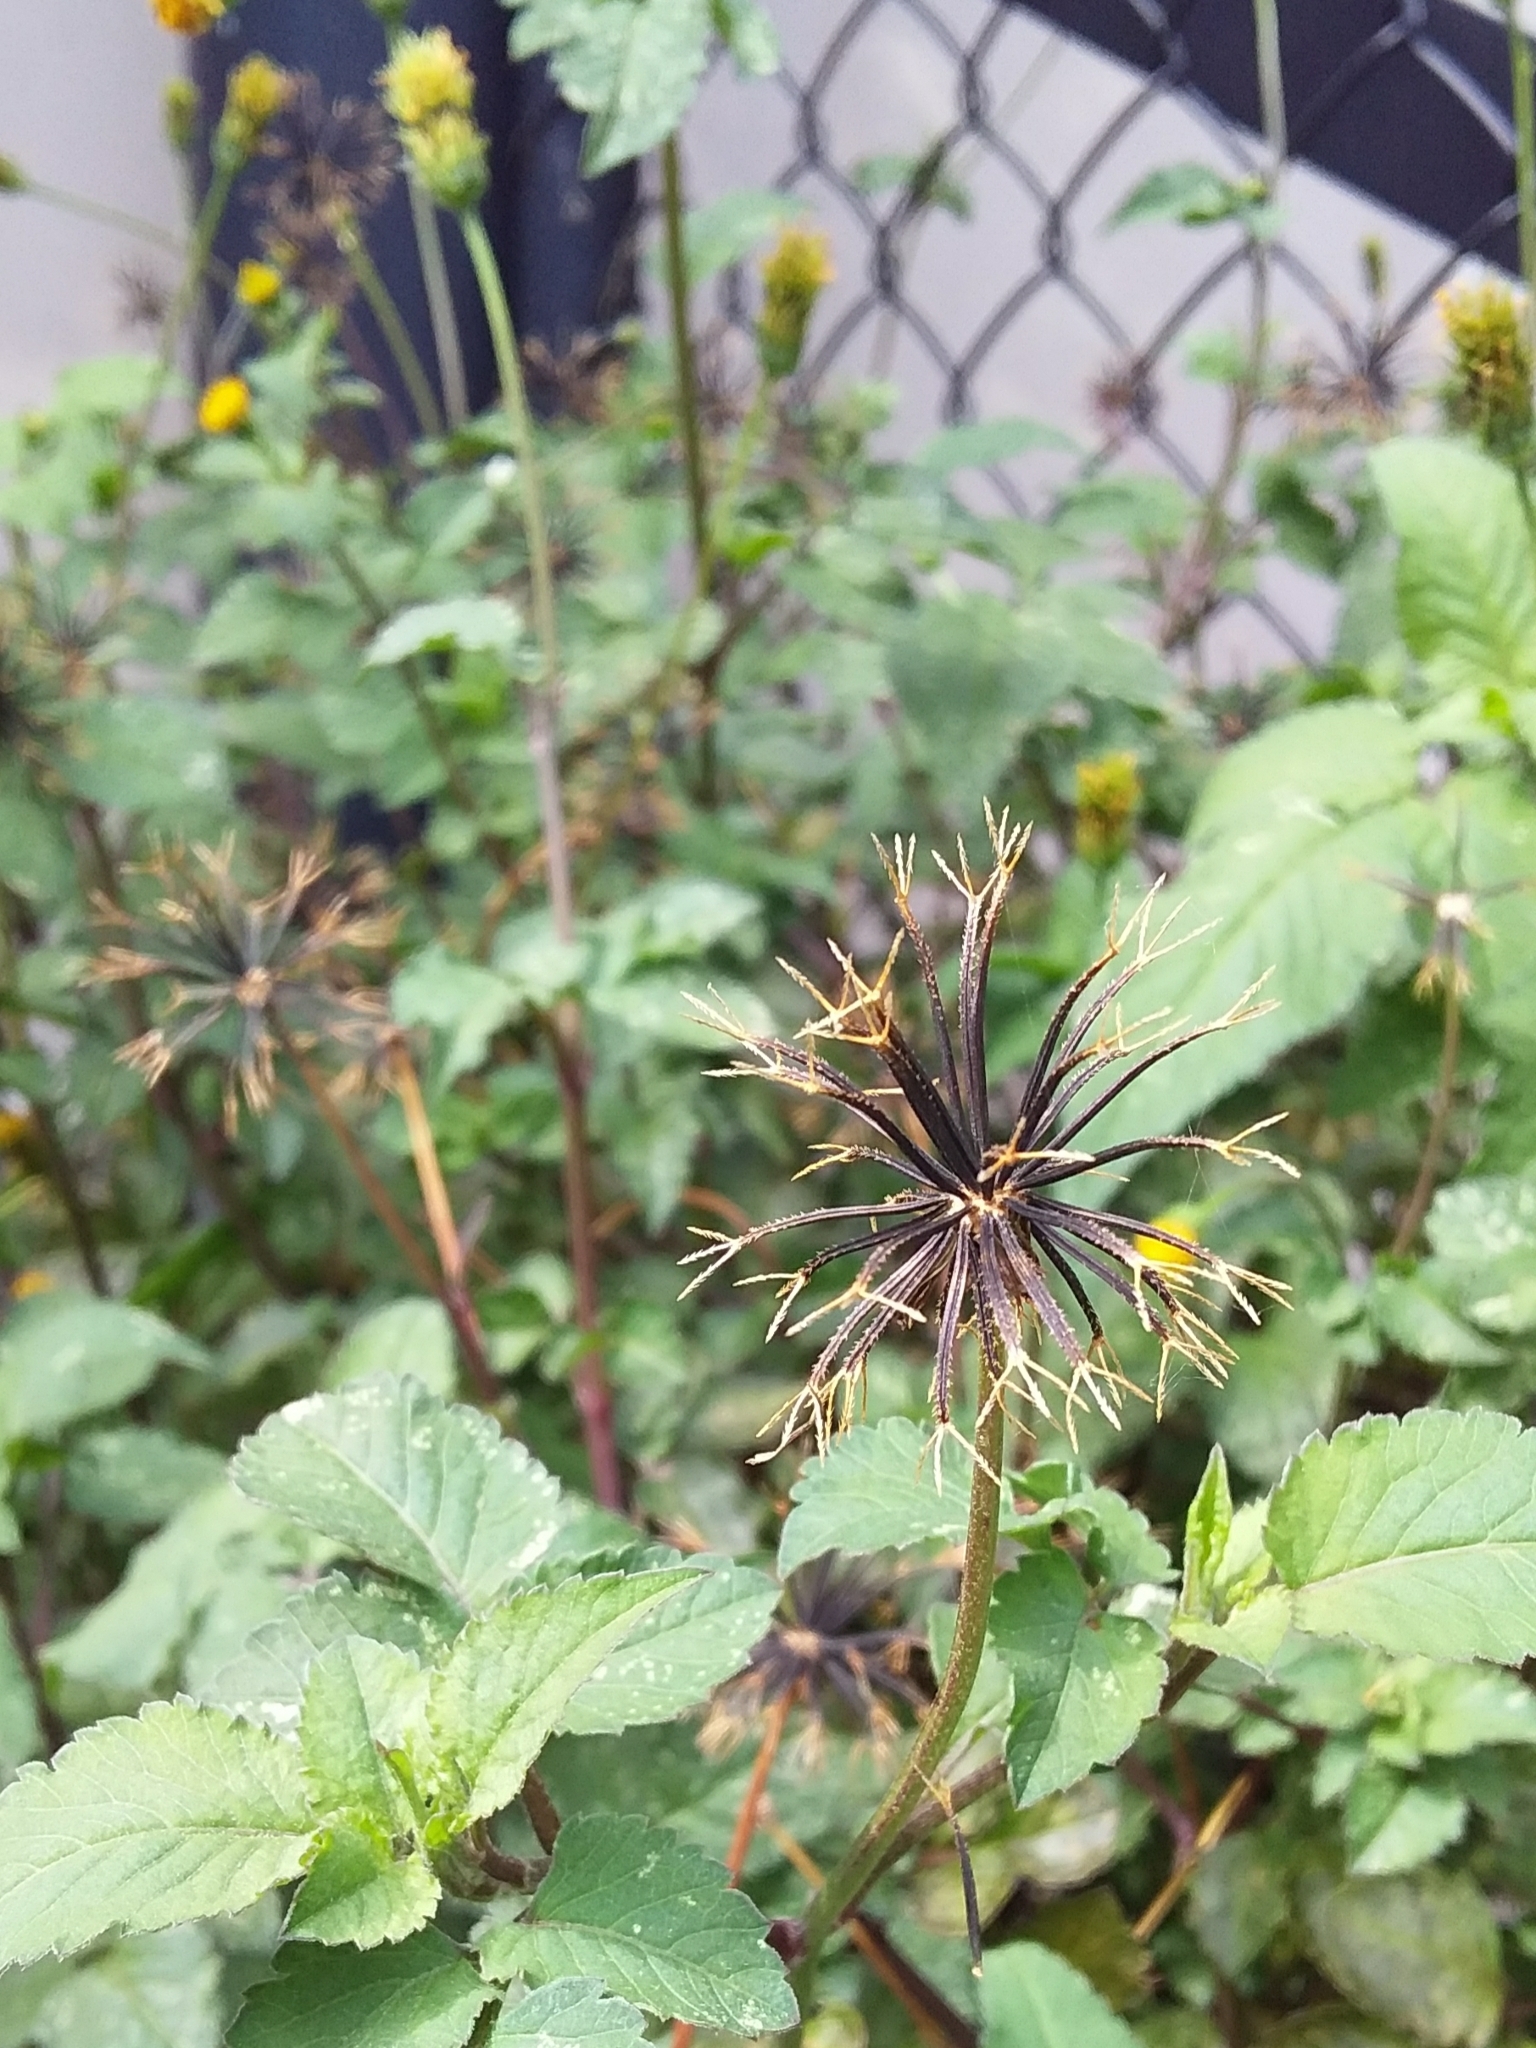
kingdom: Plantae
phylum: Tracheophyta
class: Magnoliopsida
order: Asterales
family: Asteraceae
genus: Bidens
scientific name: Bidens pilosa
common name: Black-jack
